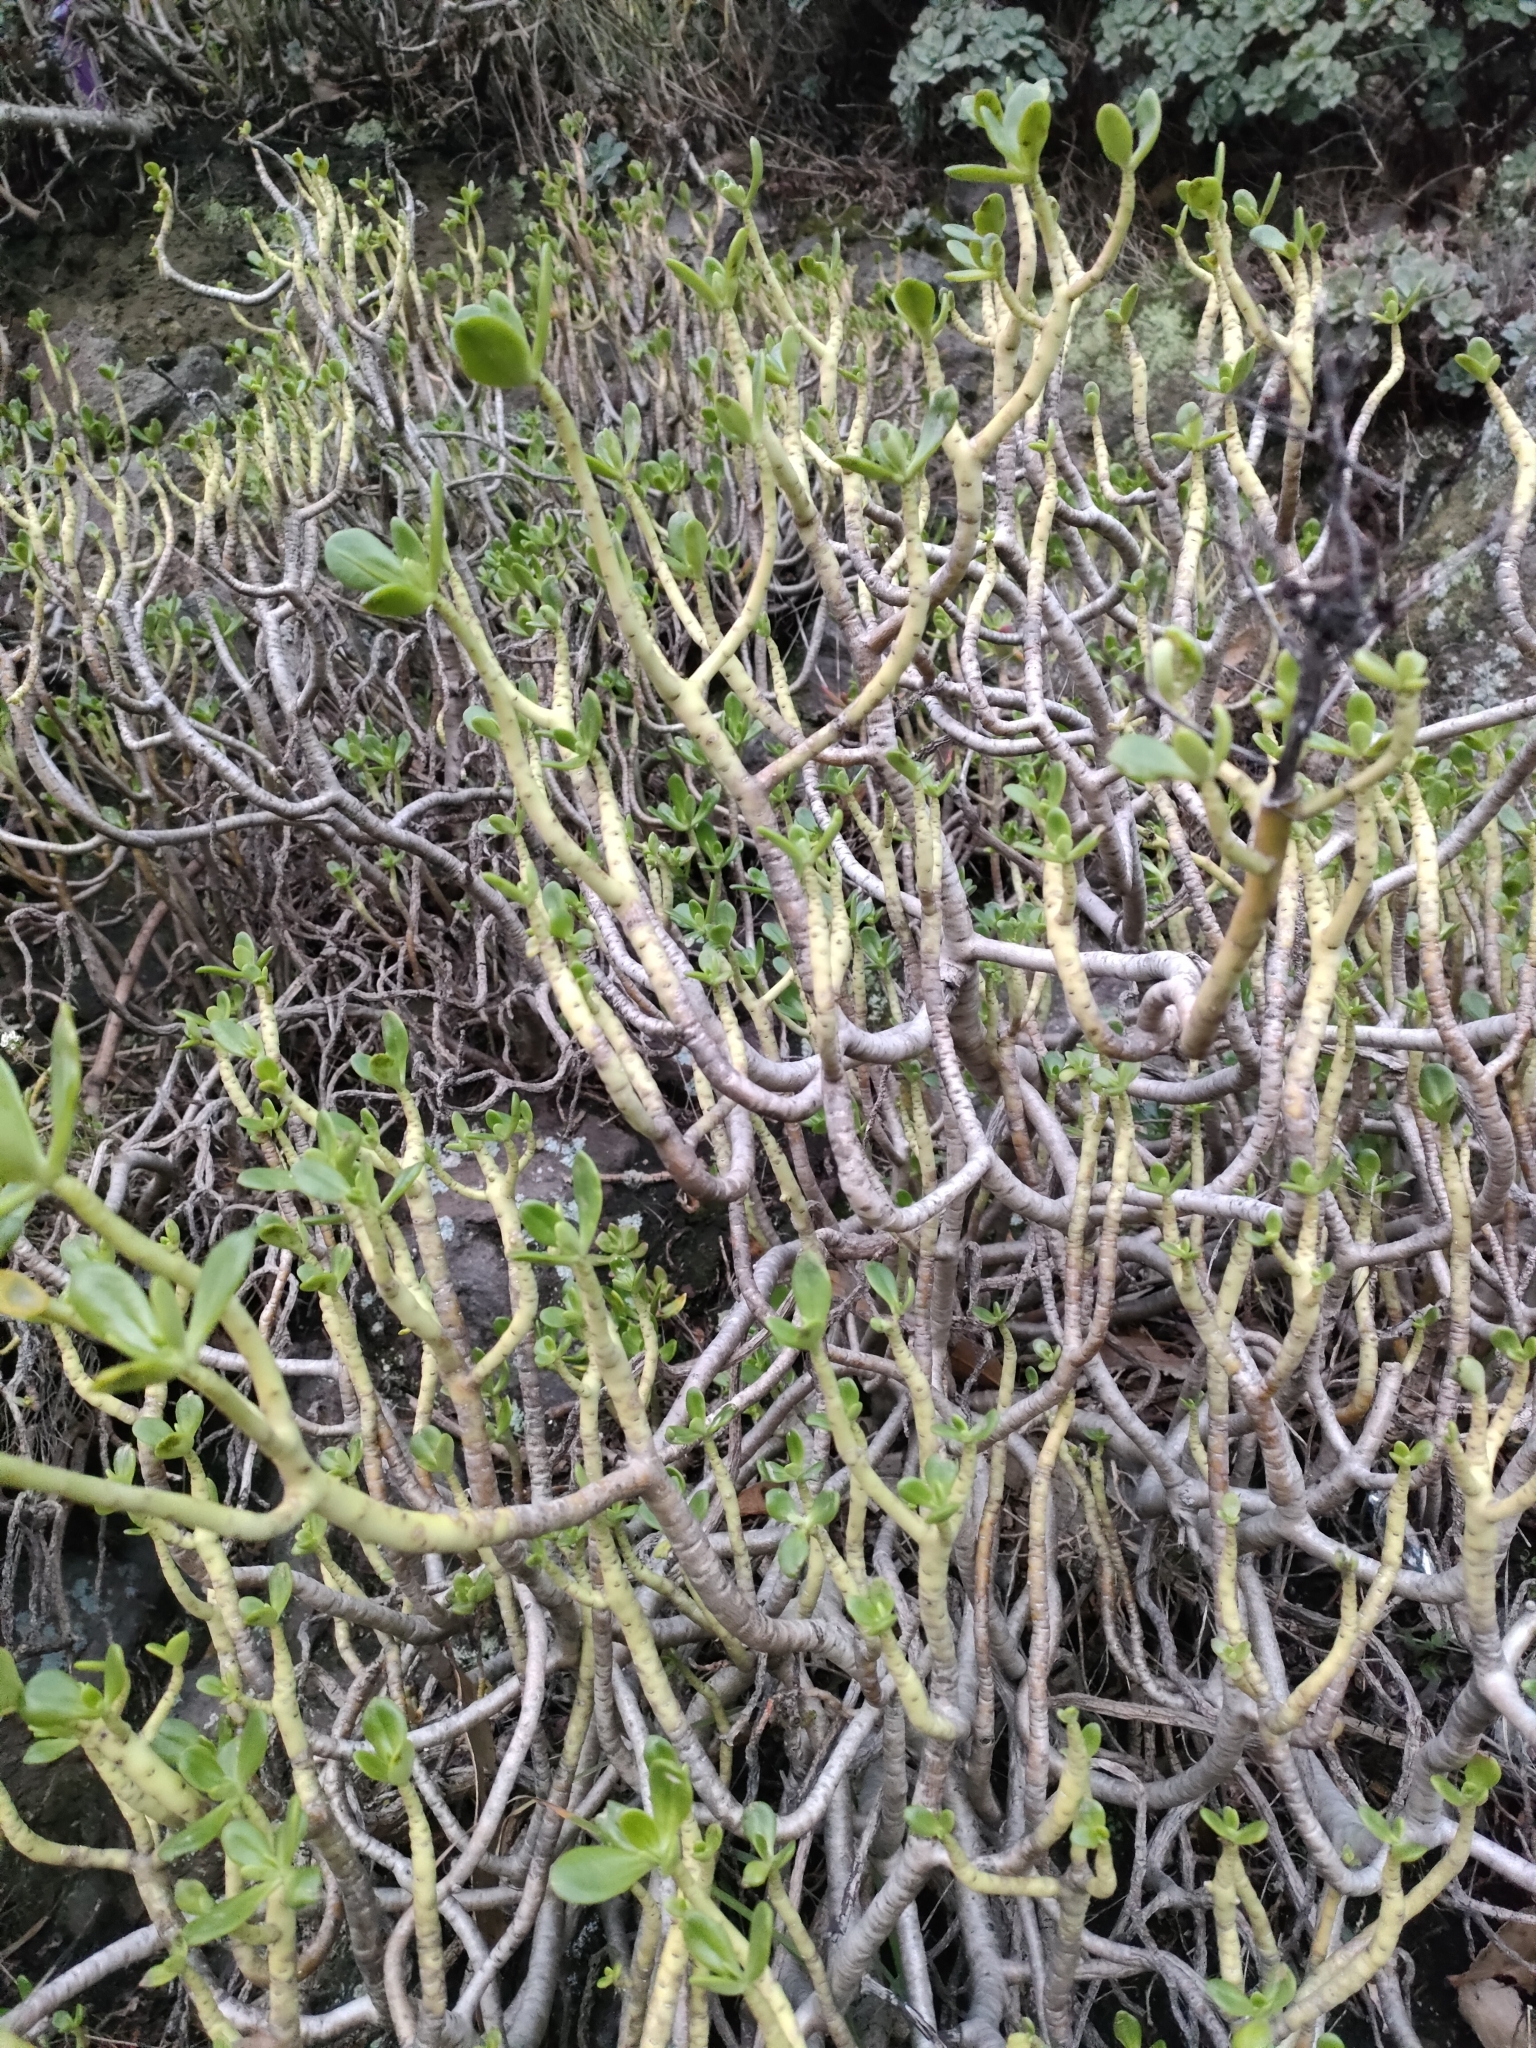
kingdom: Plantae
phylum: Tracheophyta
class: Magnoliopsida
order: Saxifragales
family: Crassulaceae
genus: Sedum
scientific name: Sedum praealtum
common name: Greater mexican-stonecrop
